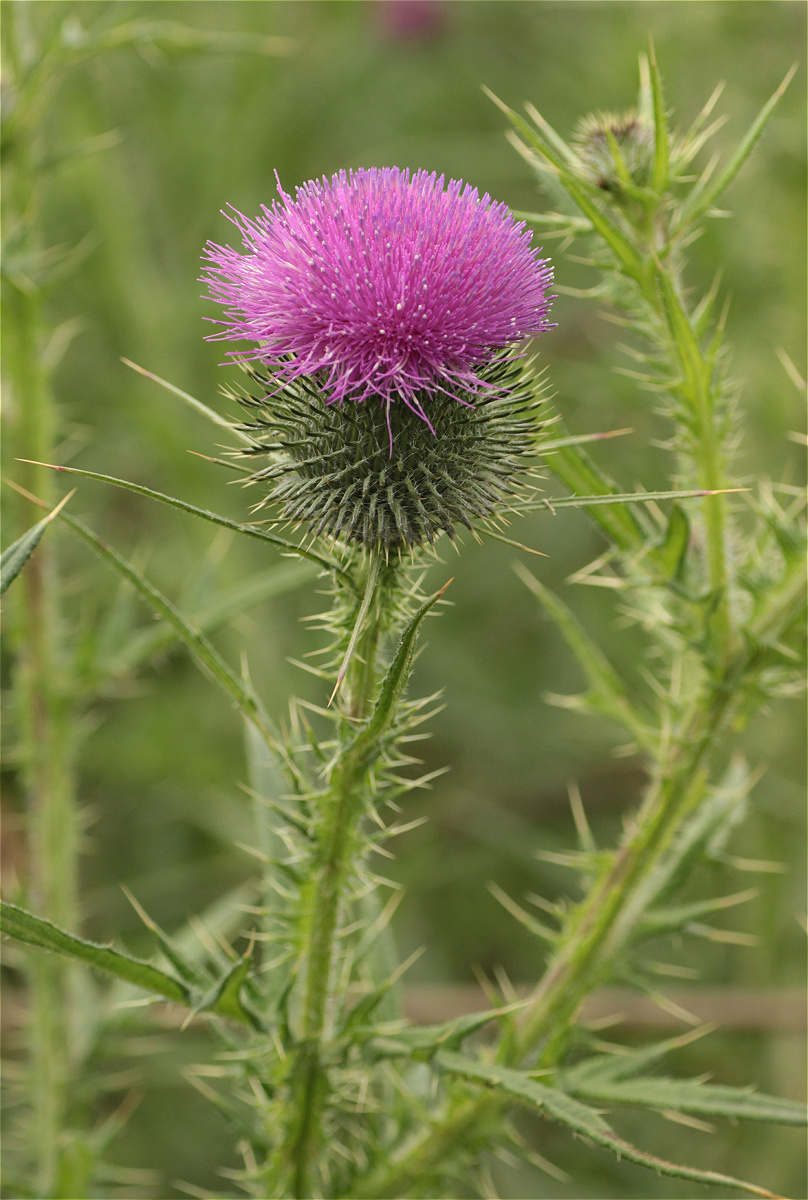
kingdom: Plantae
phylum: Tracheophyta
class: Magnoliopsida
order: Asterales
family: Asteraceae
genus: Cirsium
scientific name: Cirsium vulgare
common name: Bull thistle
